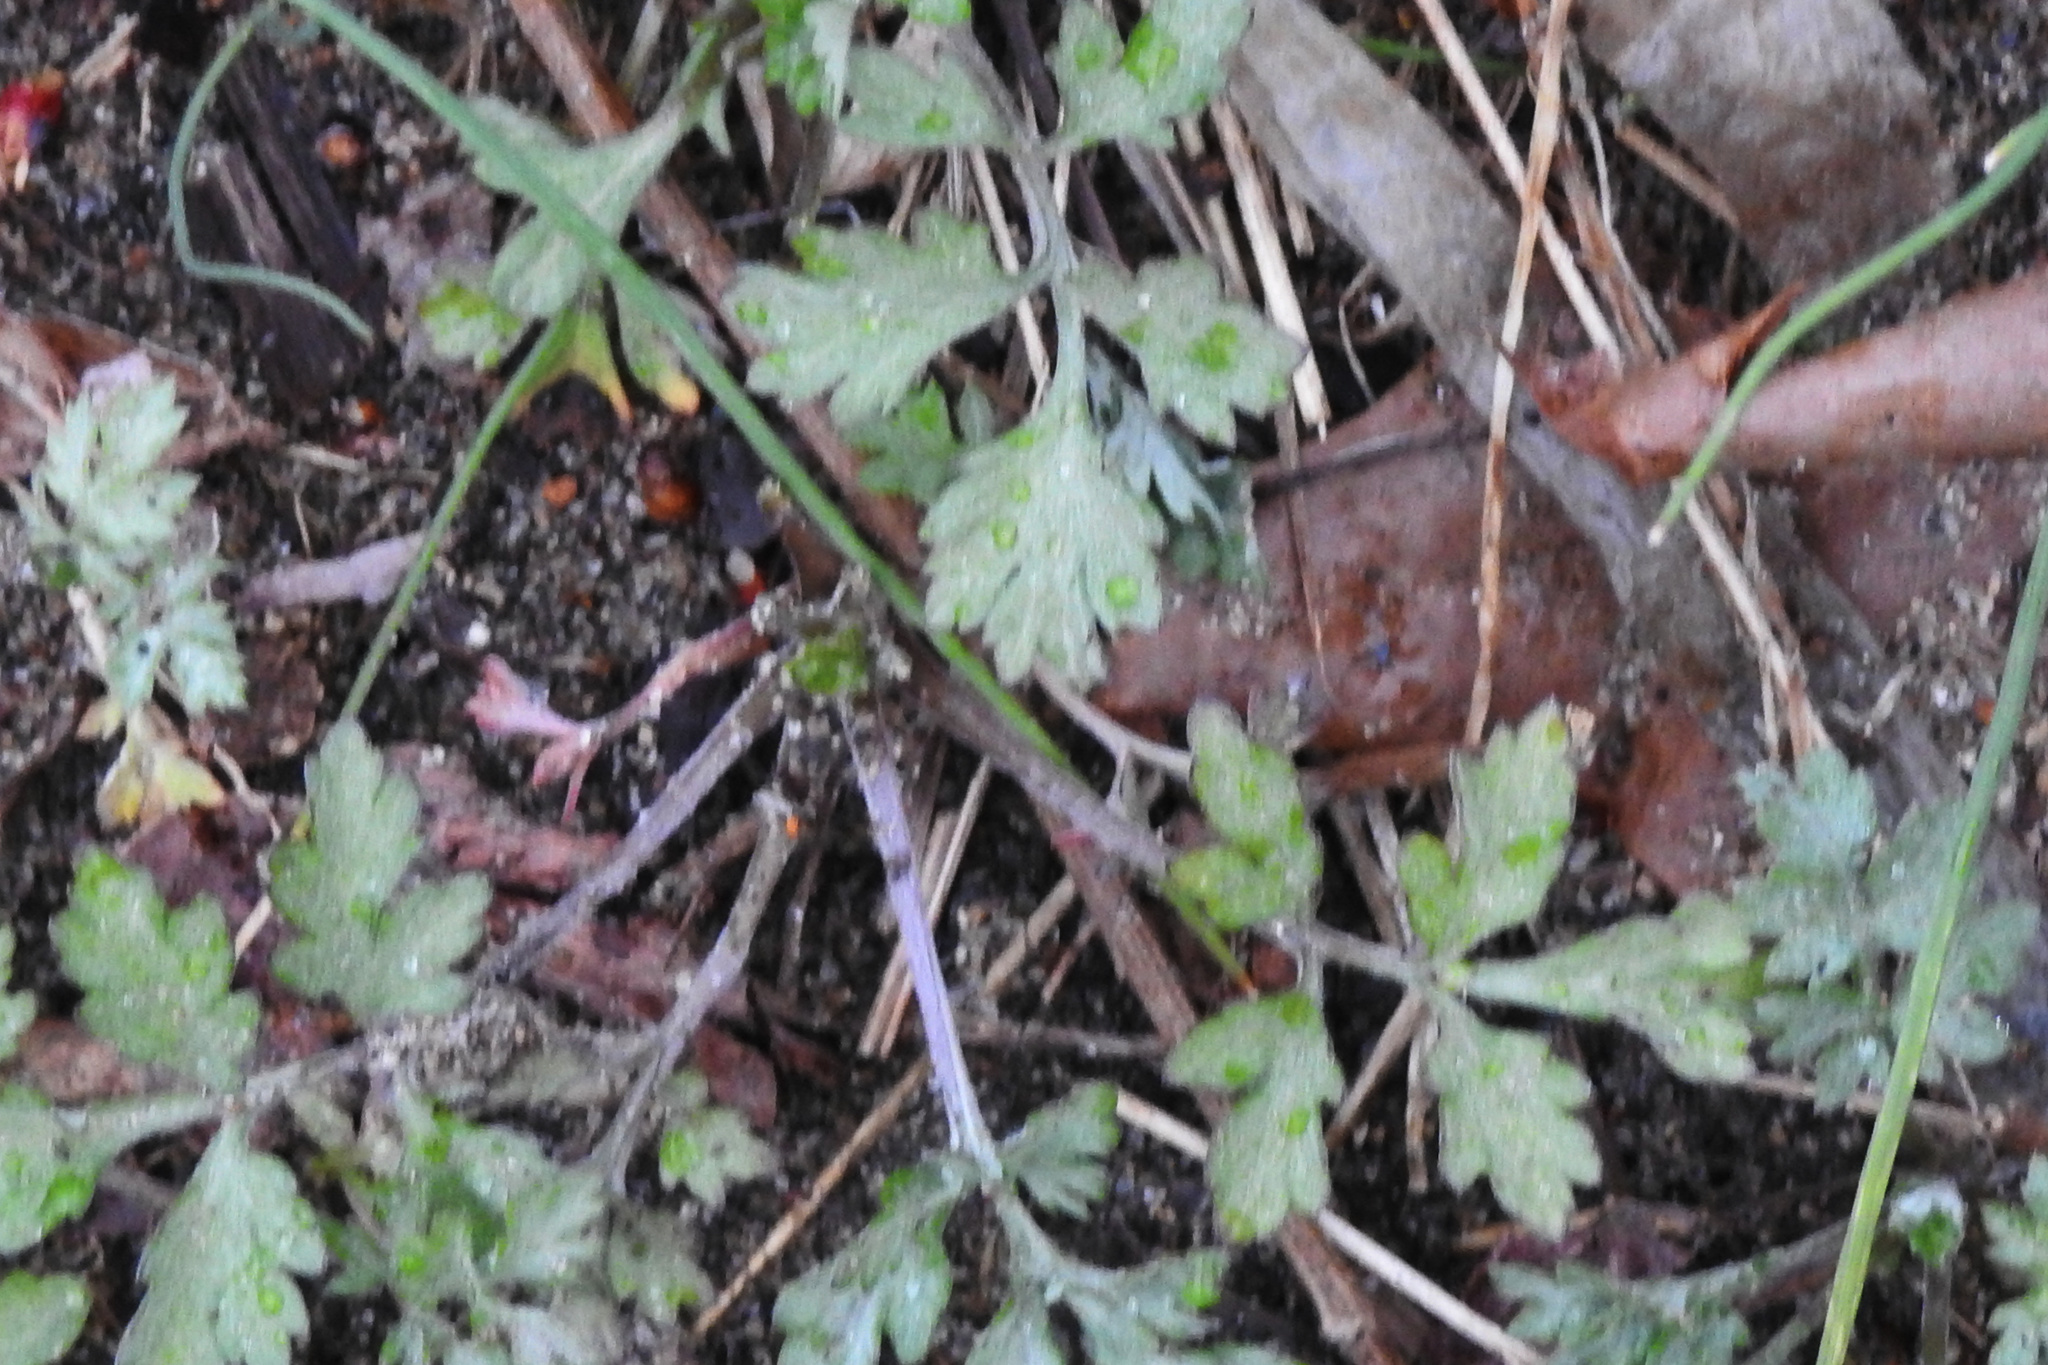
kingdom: Plantae
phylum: Tracheophyta
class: Magnoliopsida
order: Asterales
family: Asteraceae
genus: Artemisia
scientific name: Artemisia vulgaris
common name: Mugwort
